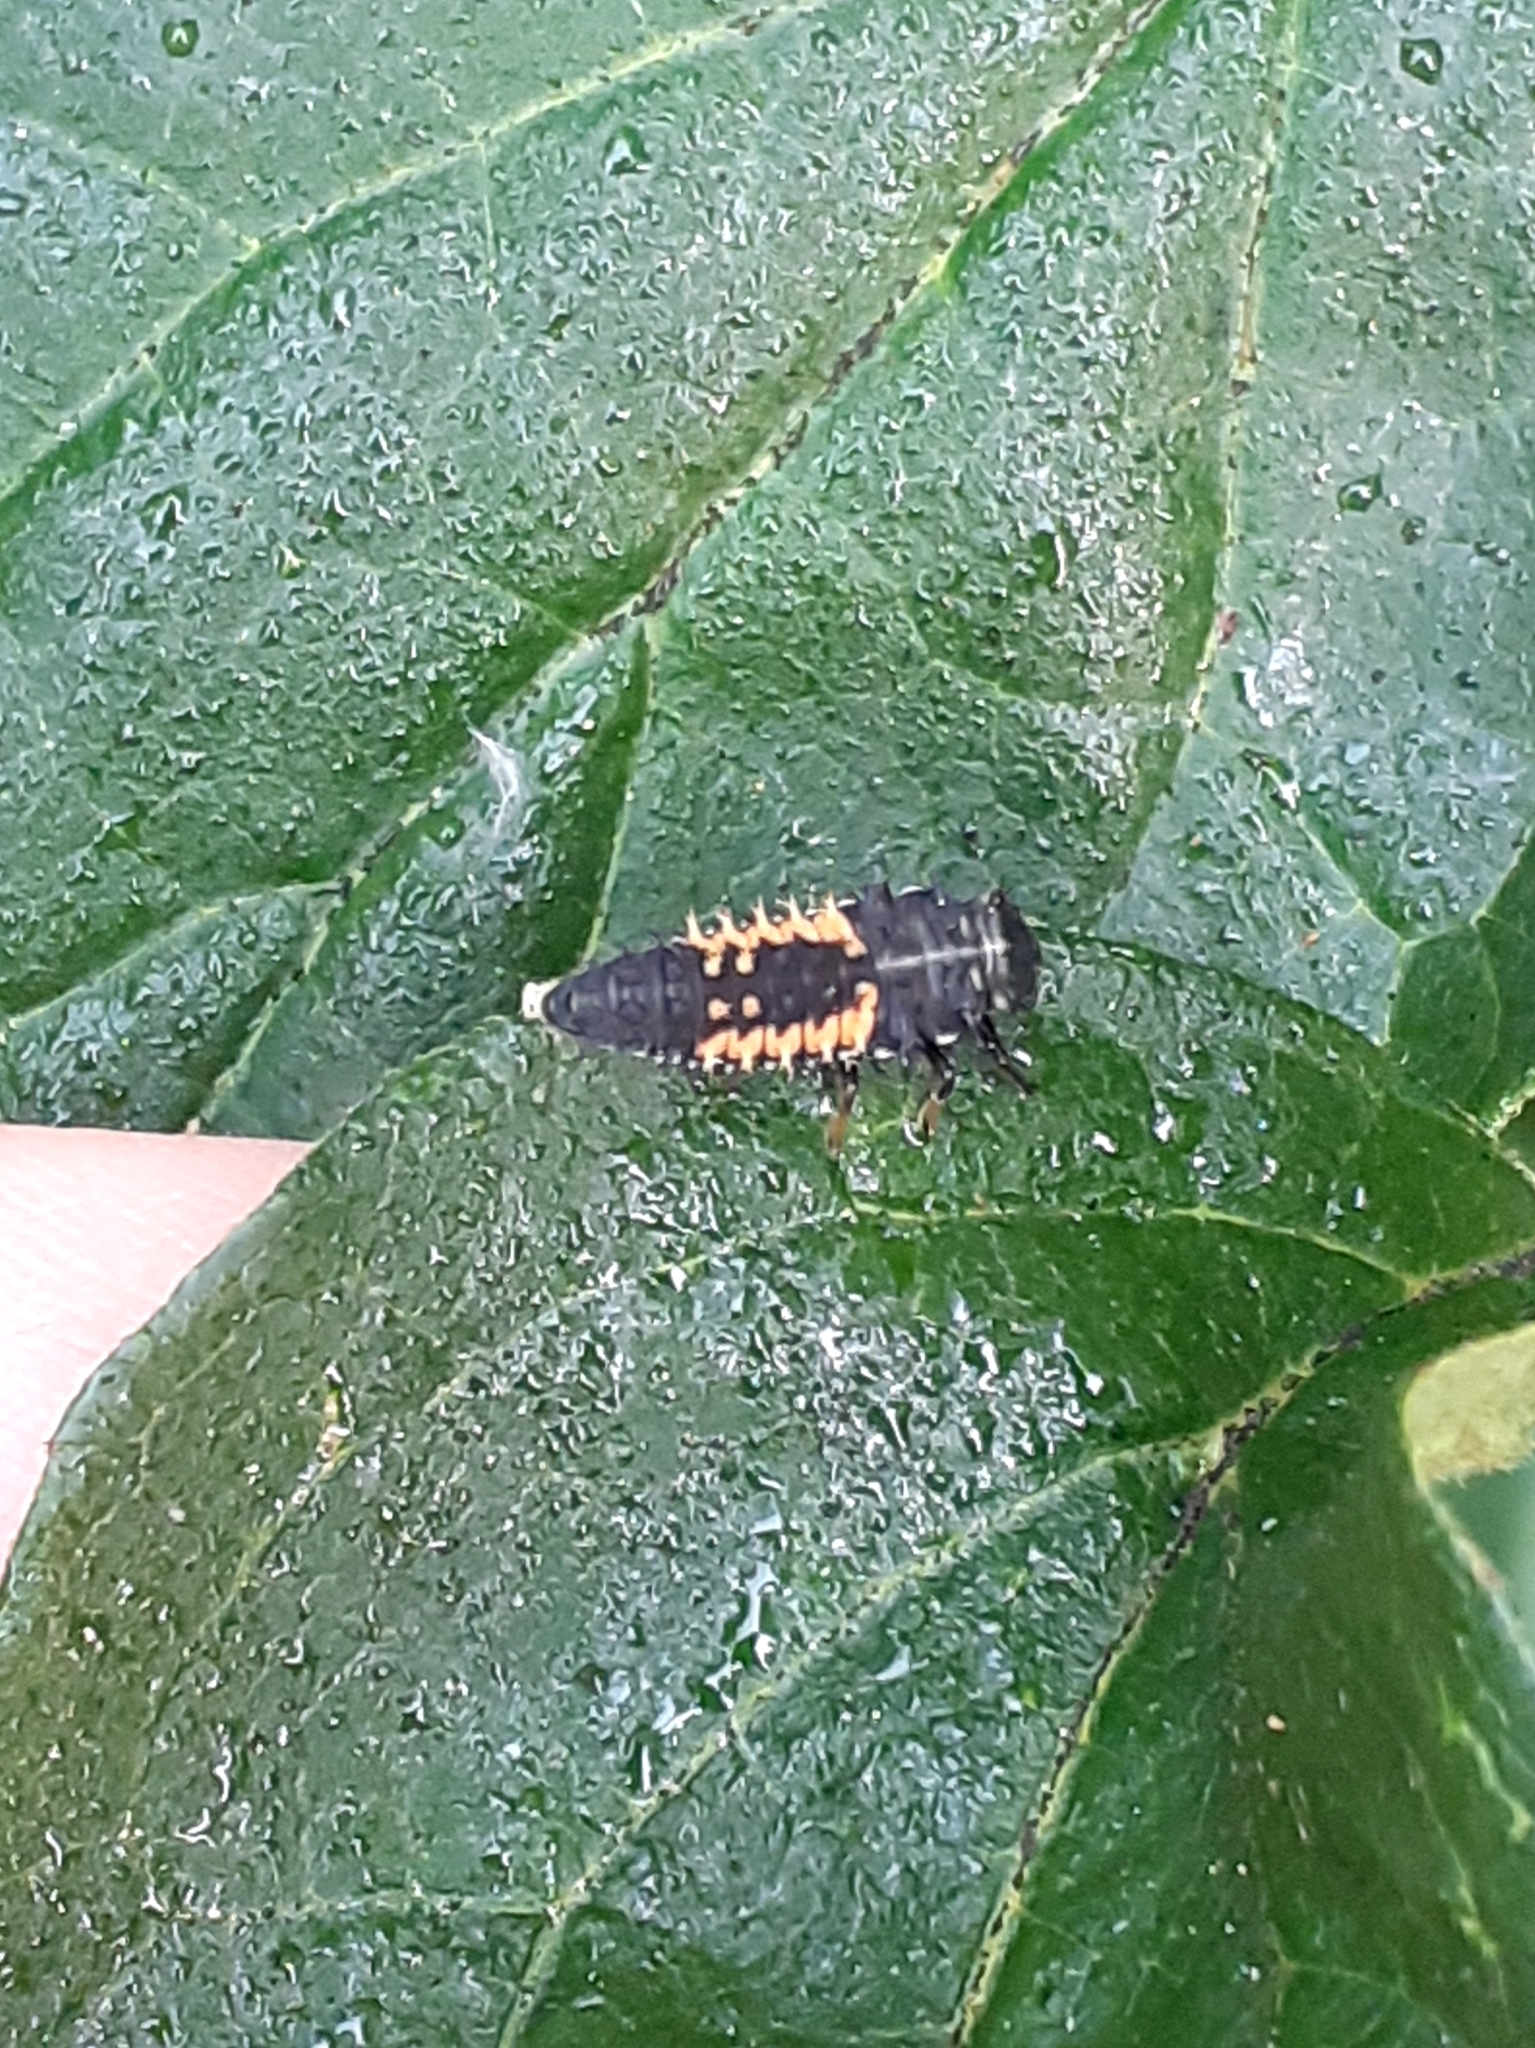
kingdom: Animalia
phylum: Arthropoda
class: Insecta
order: Coleoptera
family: Coccinellidae
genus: Harmonia
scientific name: Harmonia axyridis
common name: Harlequin ladybird
